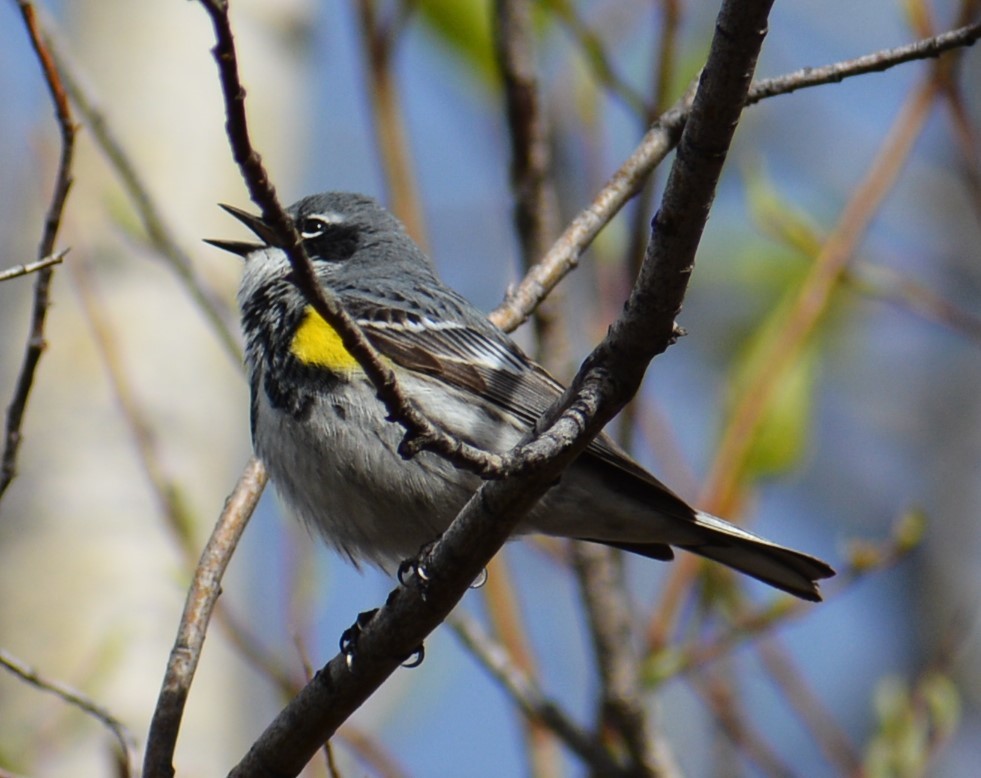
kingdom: Animalia
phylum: Chordata
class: Aves
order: Passeriformes
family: Parulidae
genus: Setophaga
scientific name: Setophaga coronata
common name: Myrtle warbler
